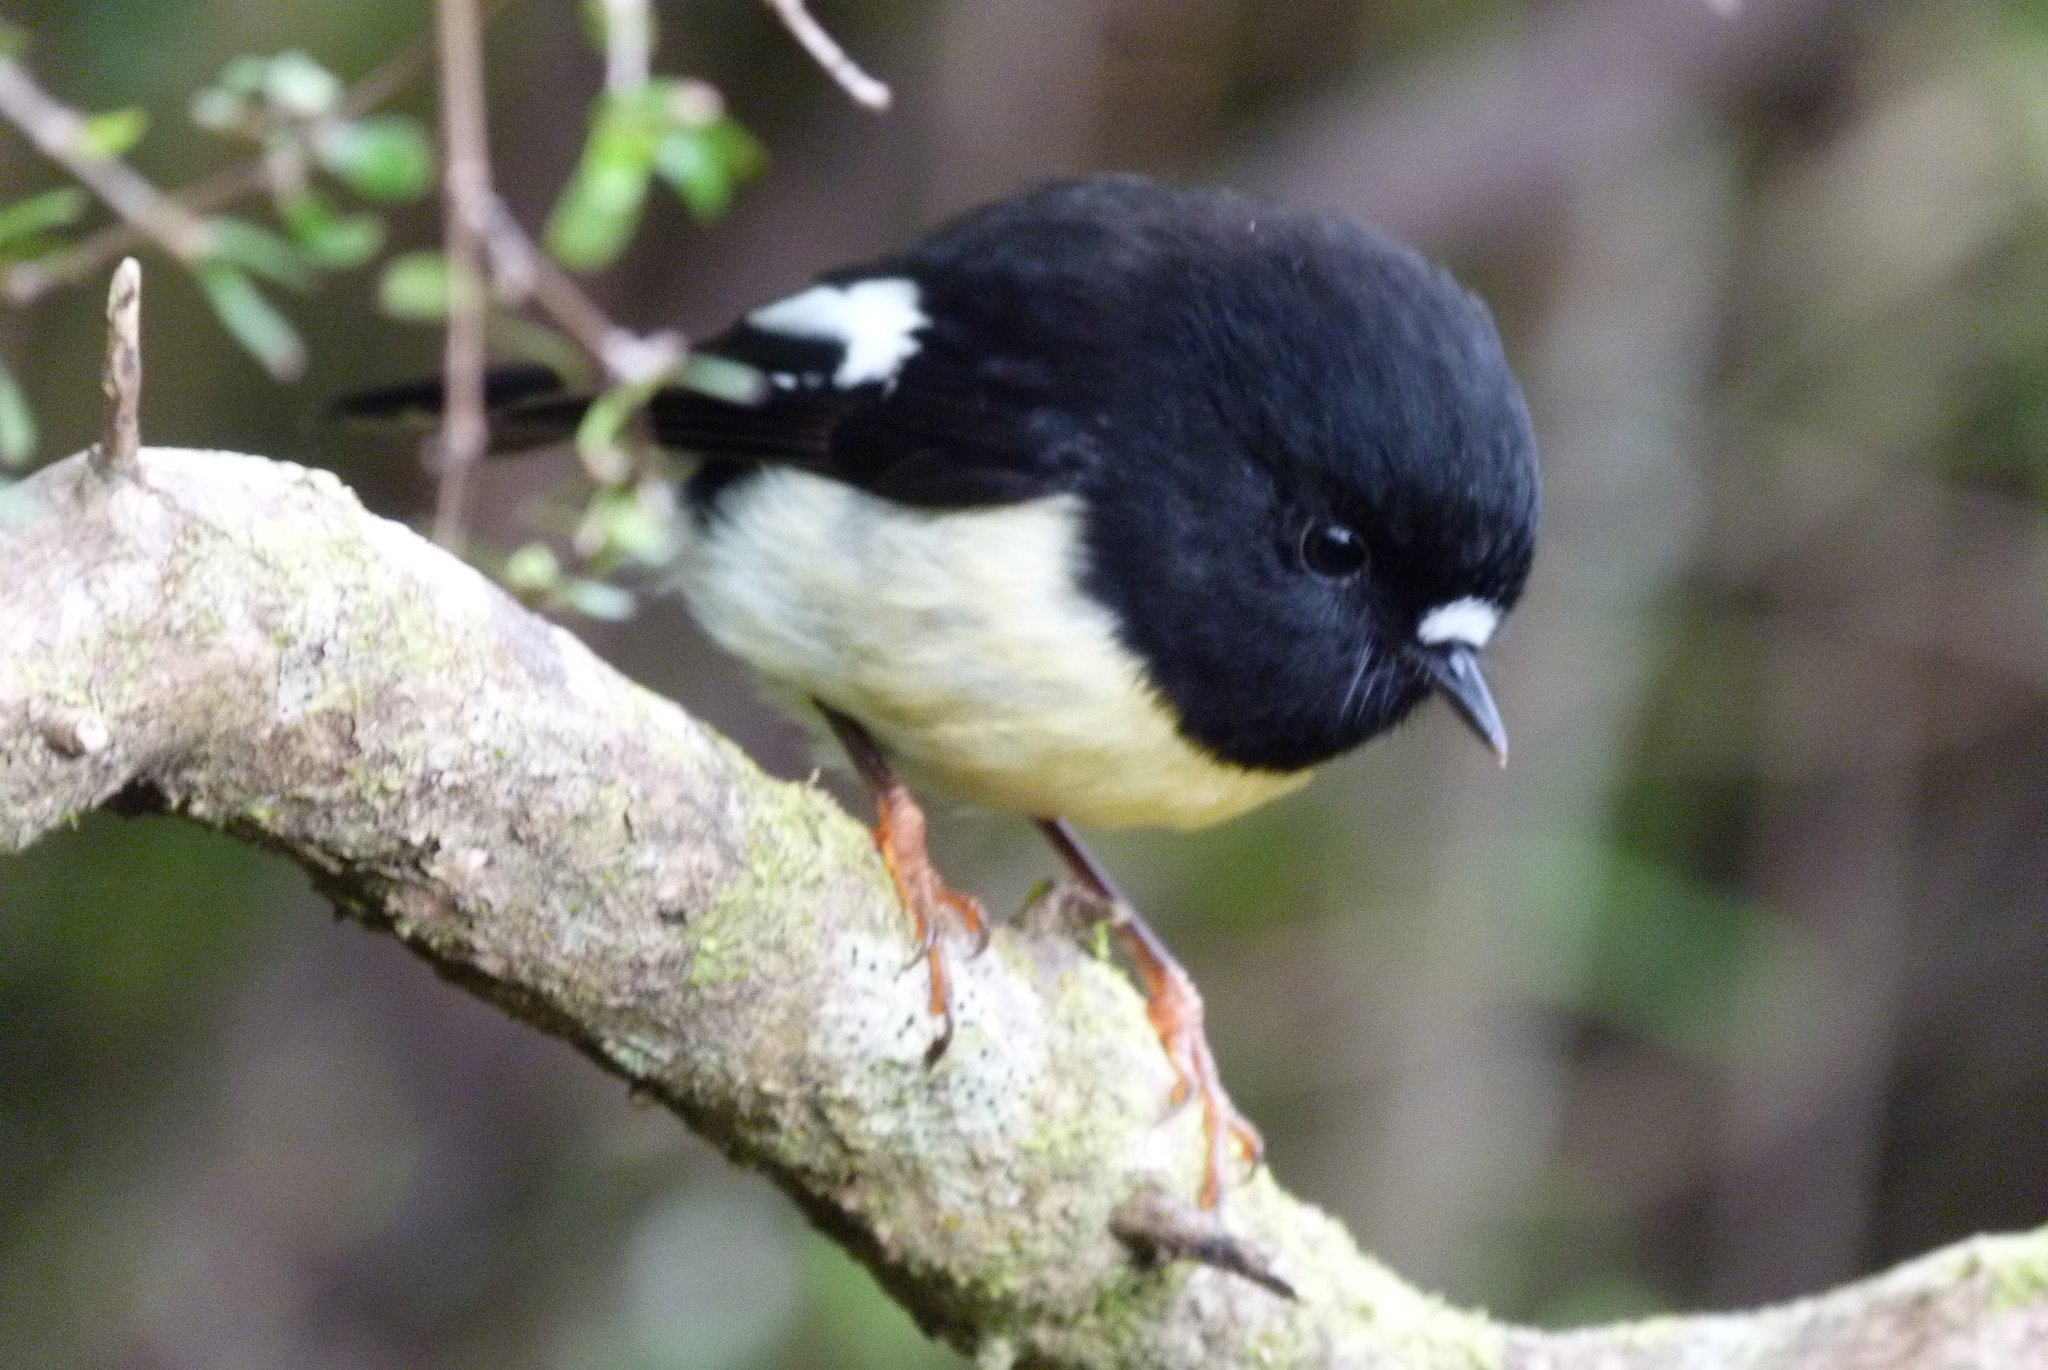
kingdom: Animalia
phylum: Chordata
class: Aves
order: Passeriformes
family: Petroicidae
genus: Petroica
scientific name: Petroica macrocephala
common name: Tomtit
